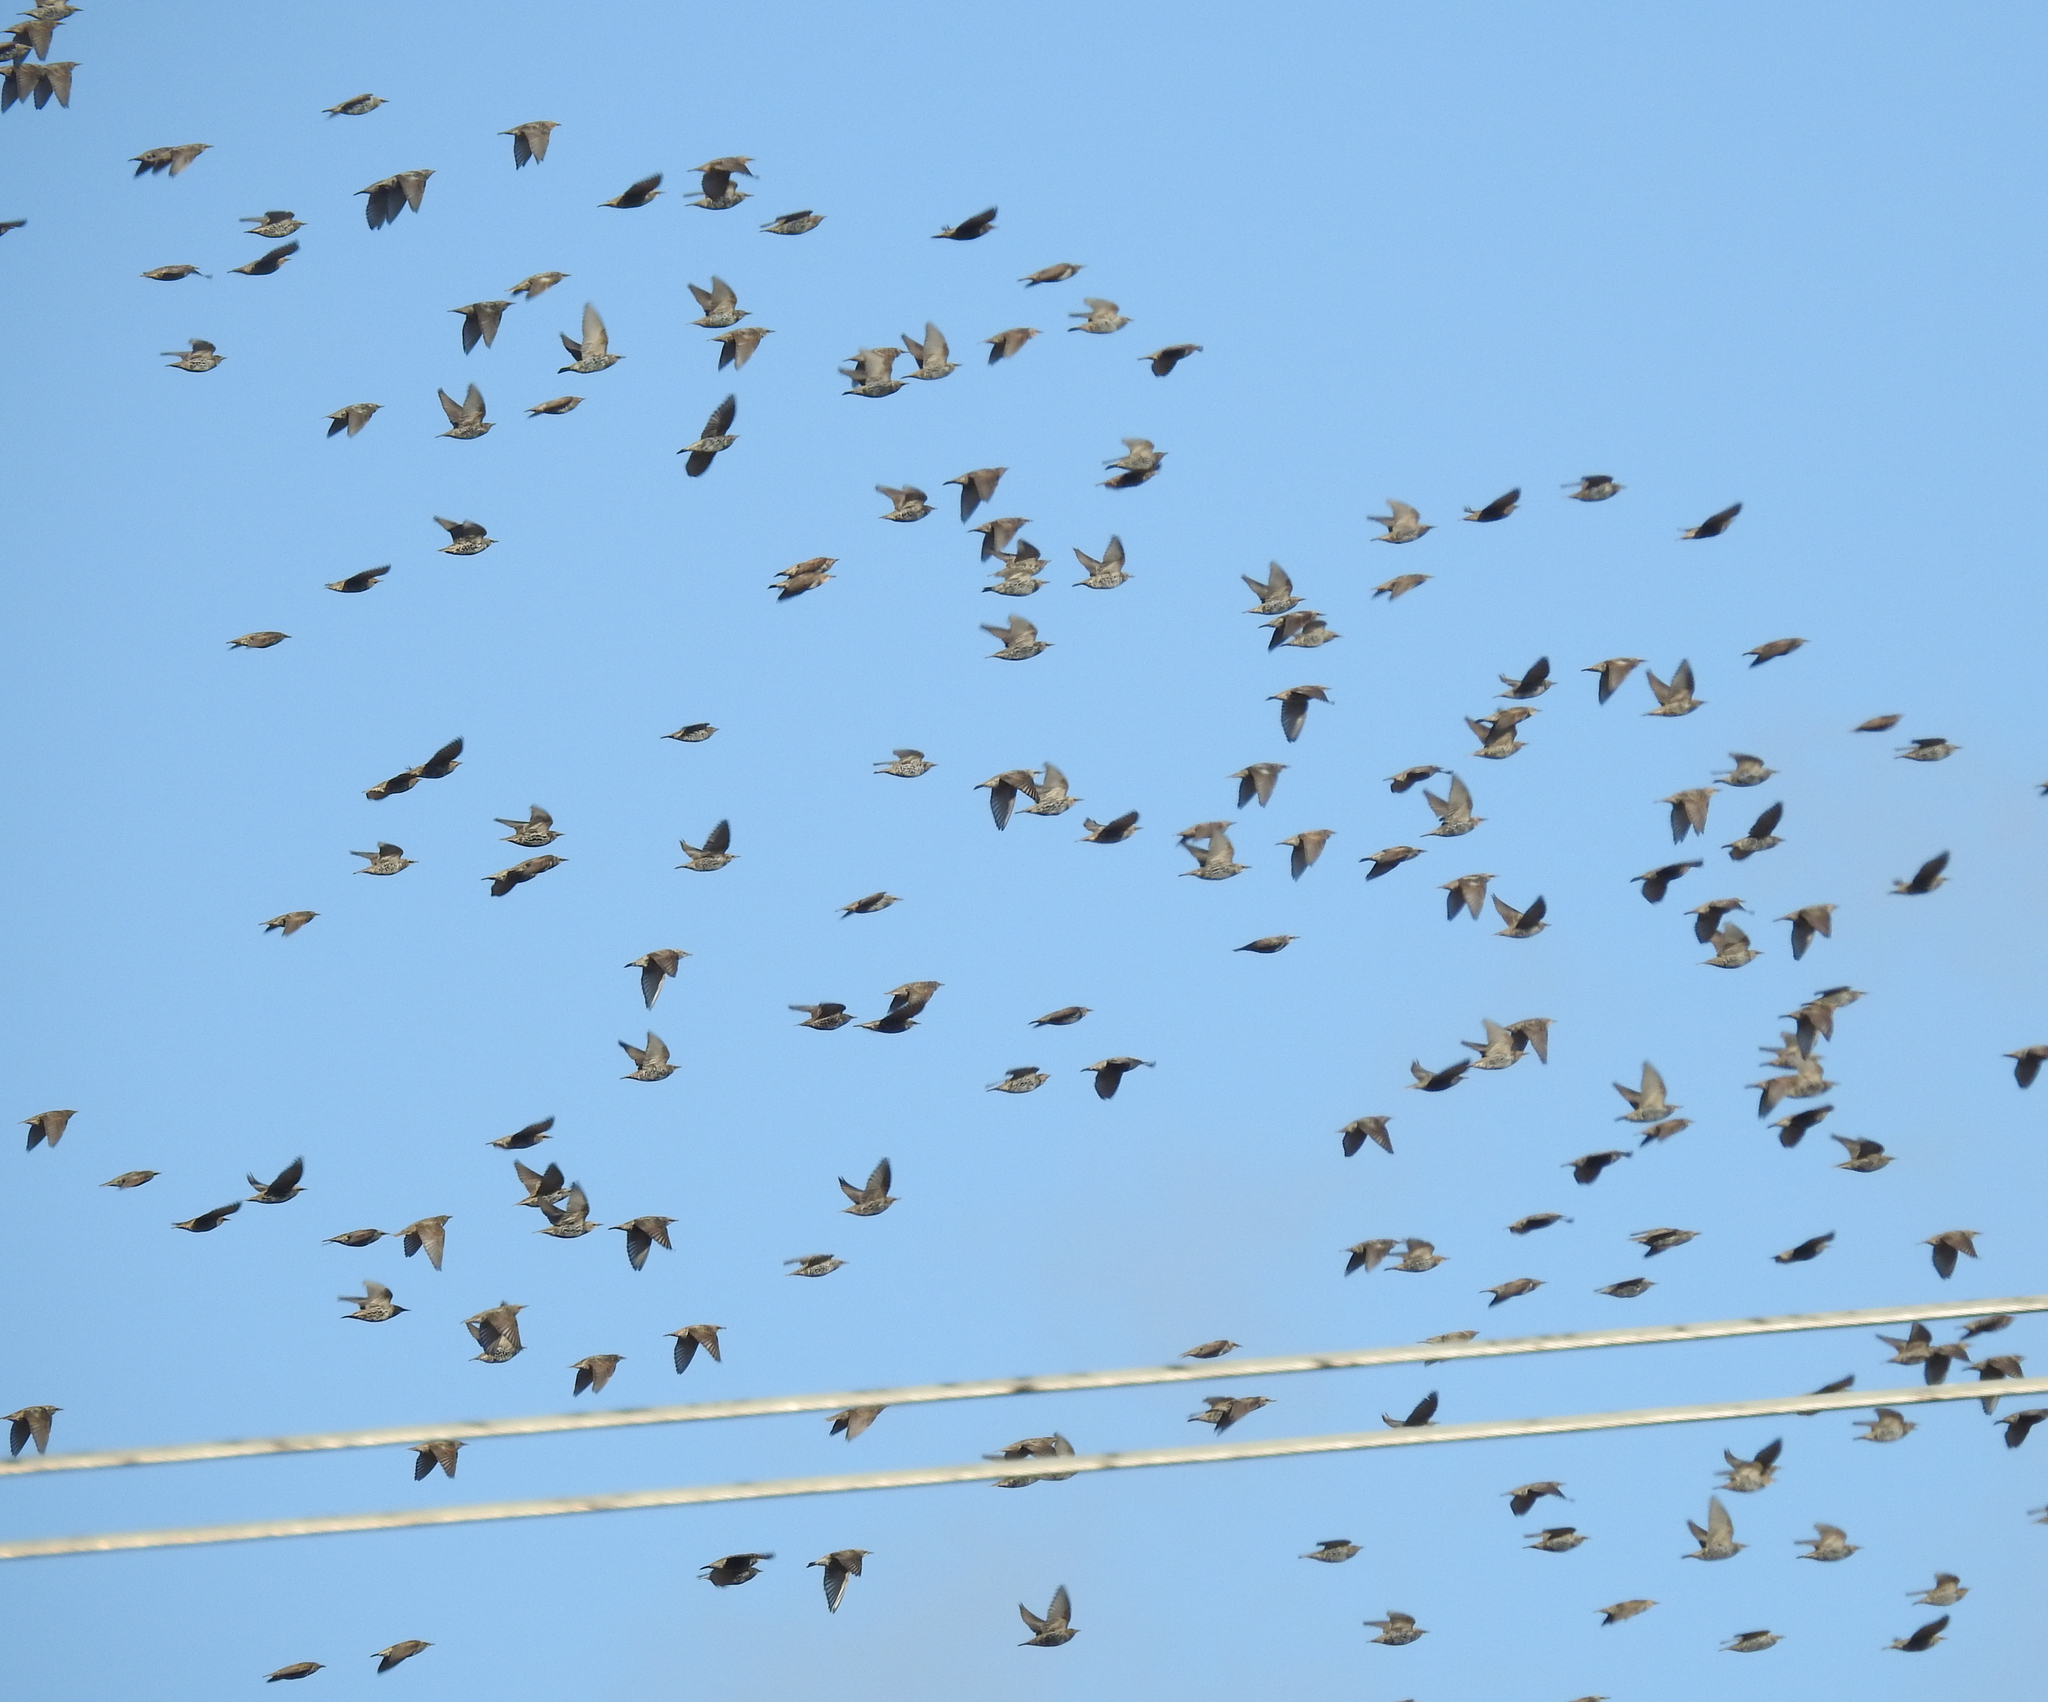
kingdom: Animalia
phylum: Chordata
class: Aves
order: Passeriformes
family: Sturnidae
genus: Sturnus
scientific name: Sturnus vulgaris
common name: Common starling
